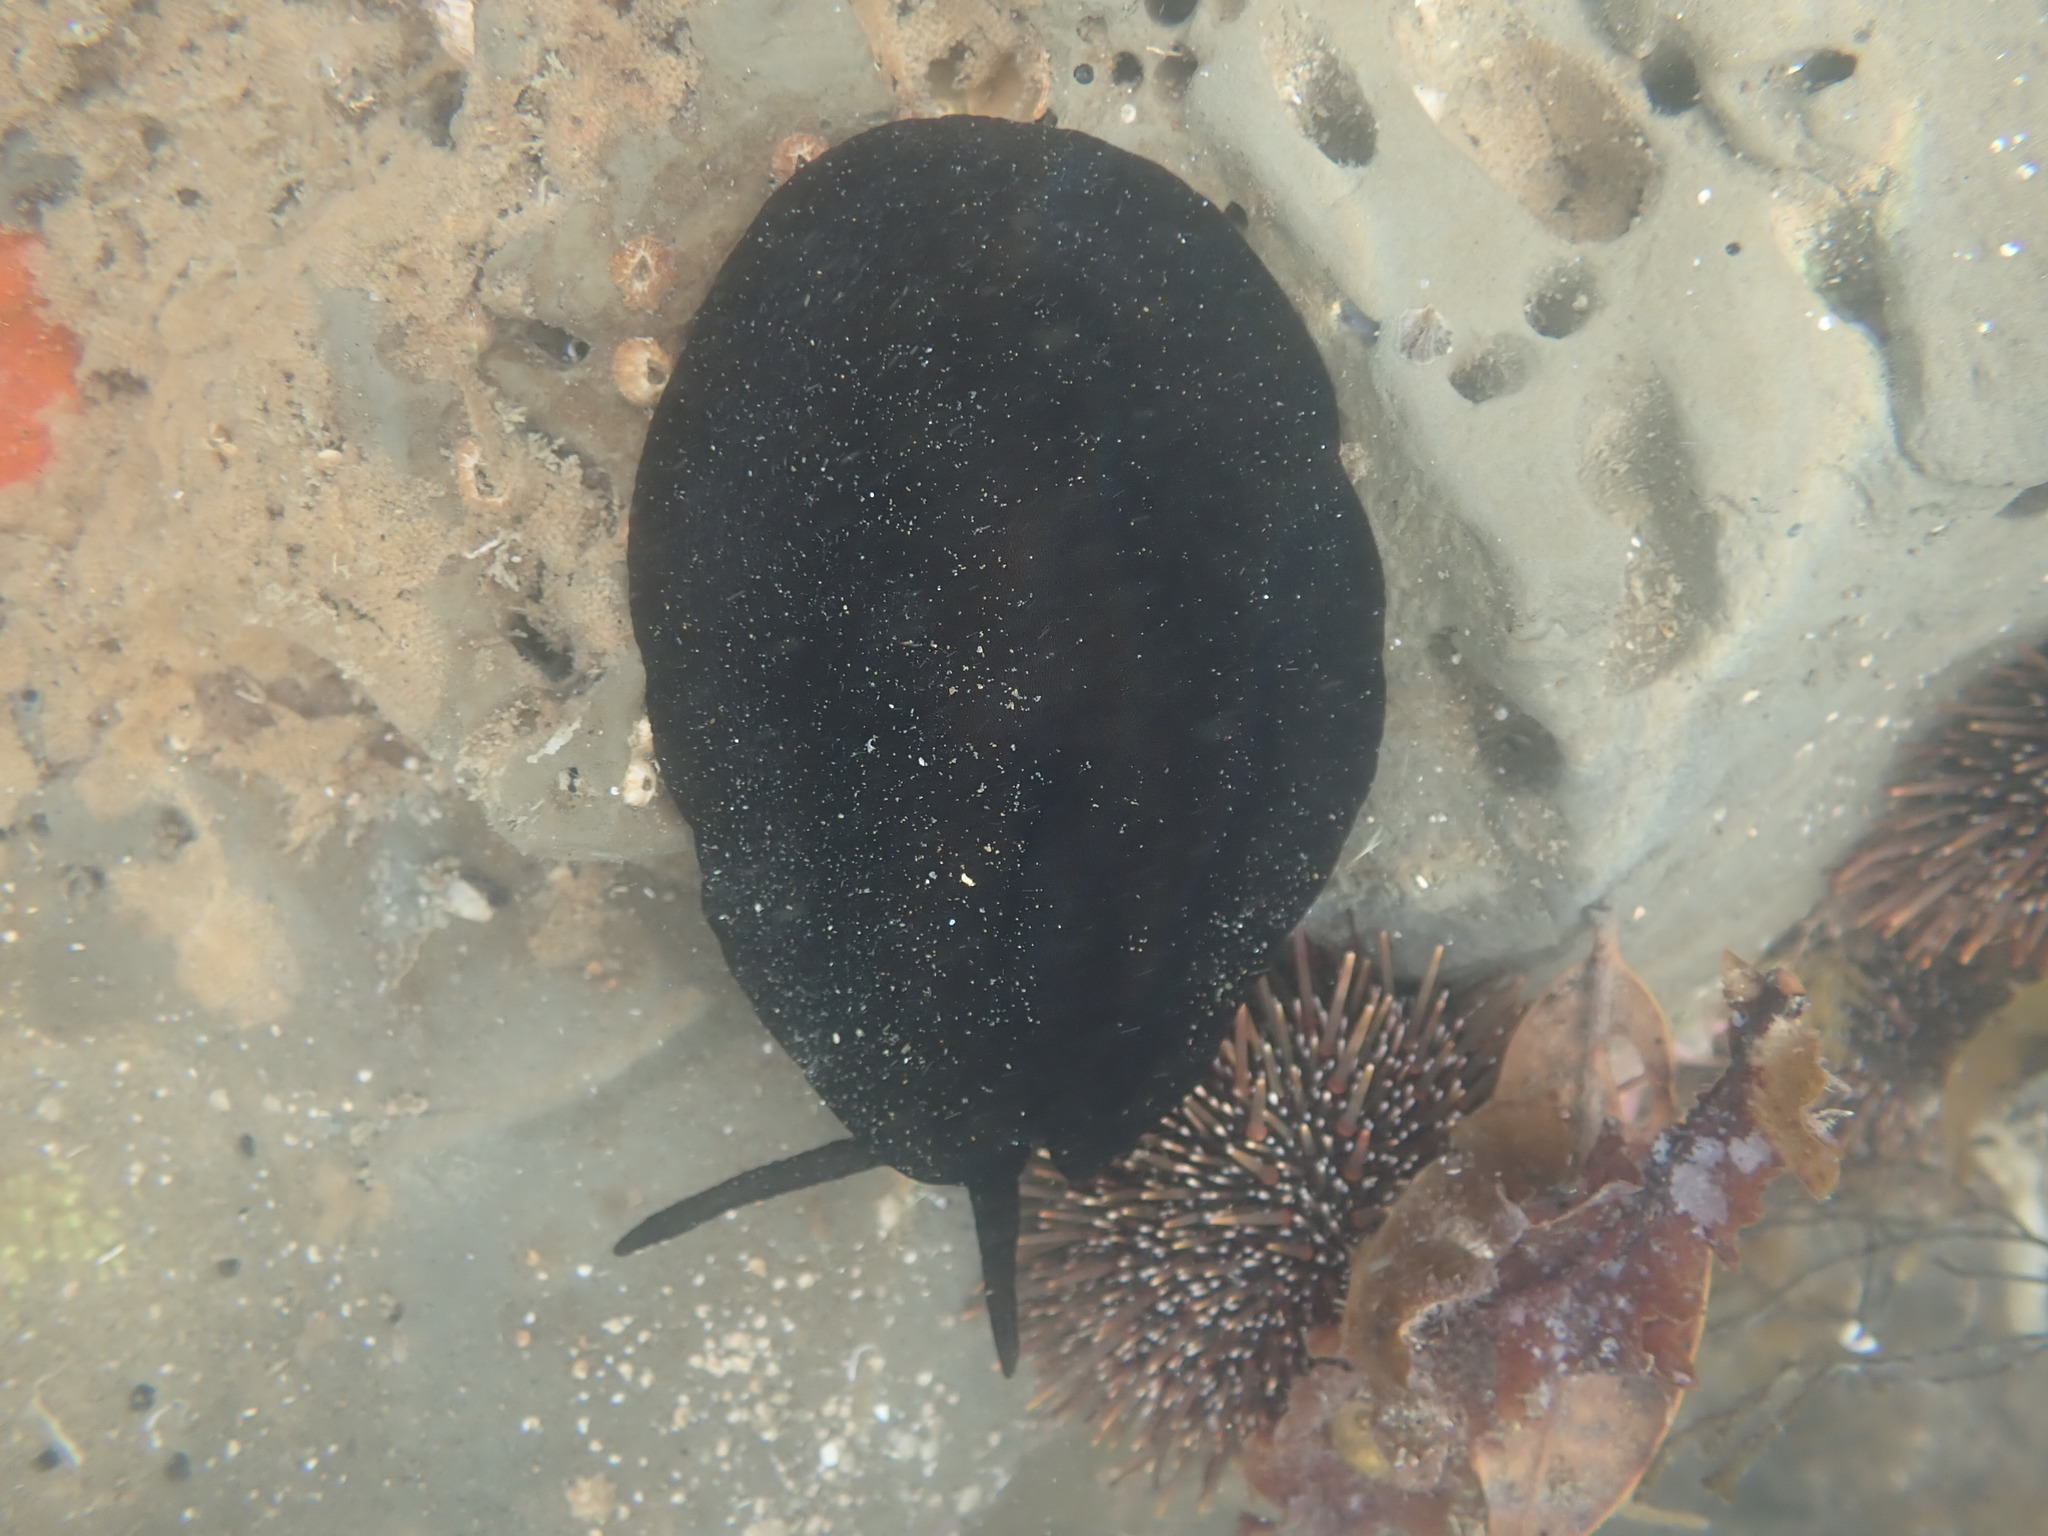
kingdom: Animalia
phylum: Mollusca
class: Gastropoda
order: Lepetellida
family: Fissurellidae
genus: Scutus
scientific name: Scutus breviculus
